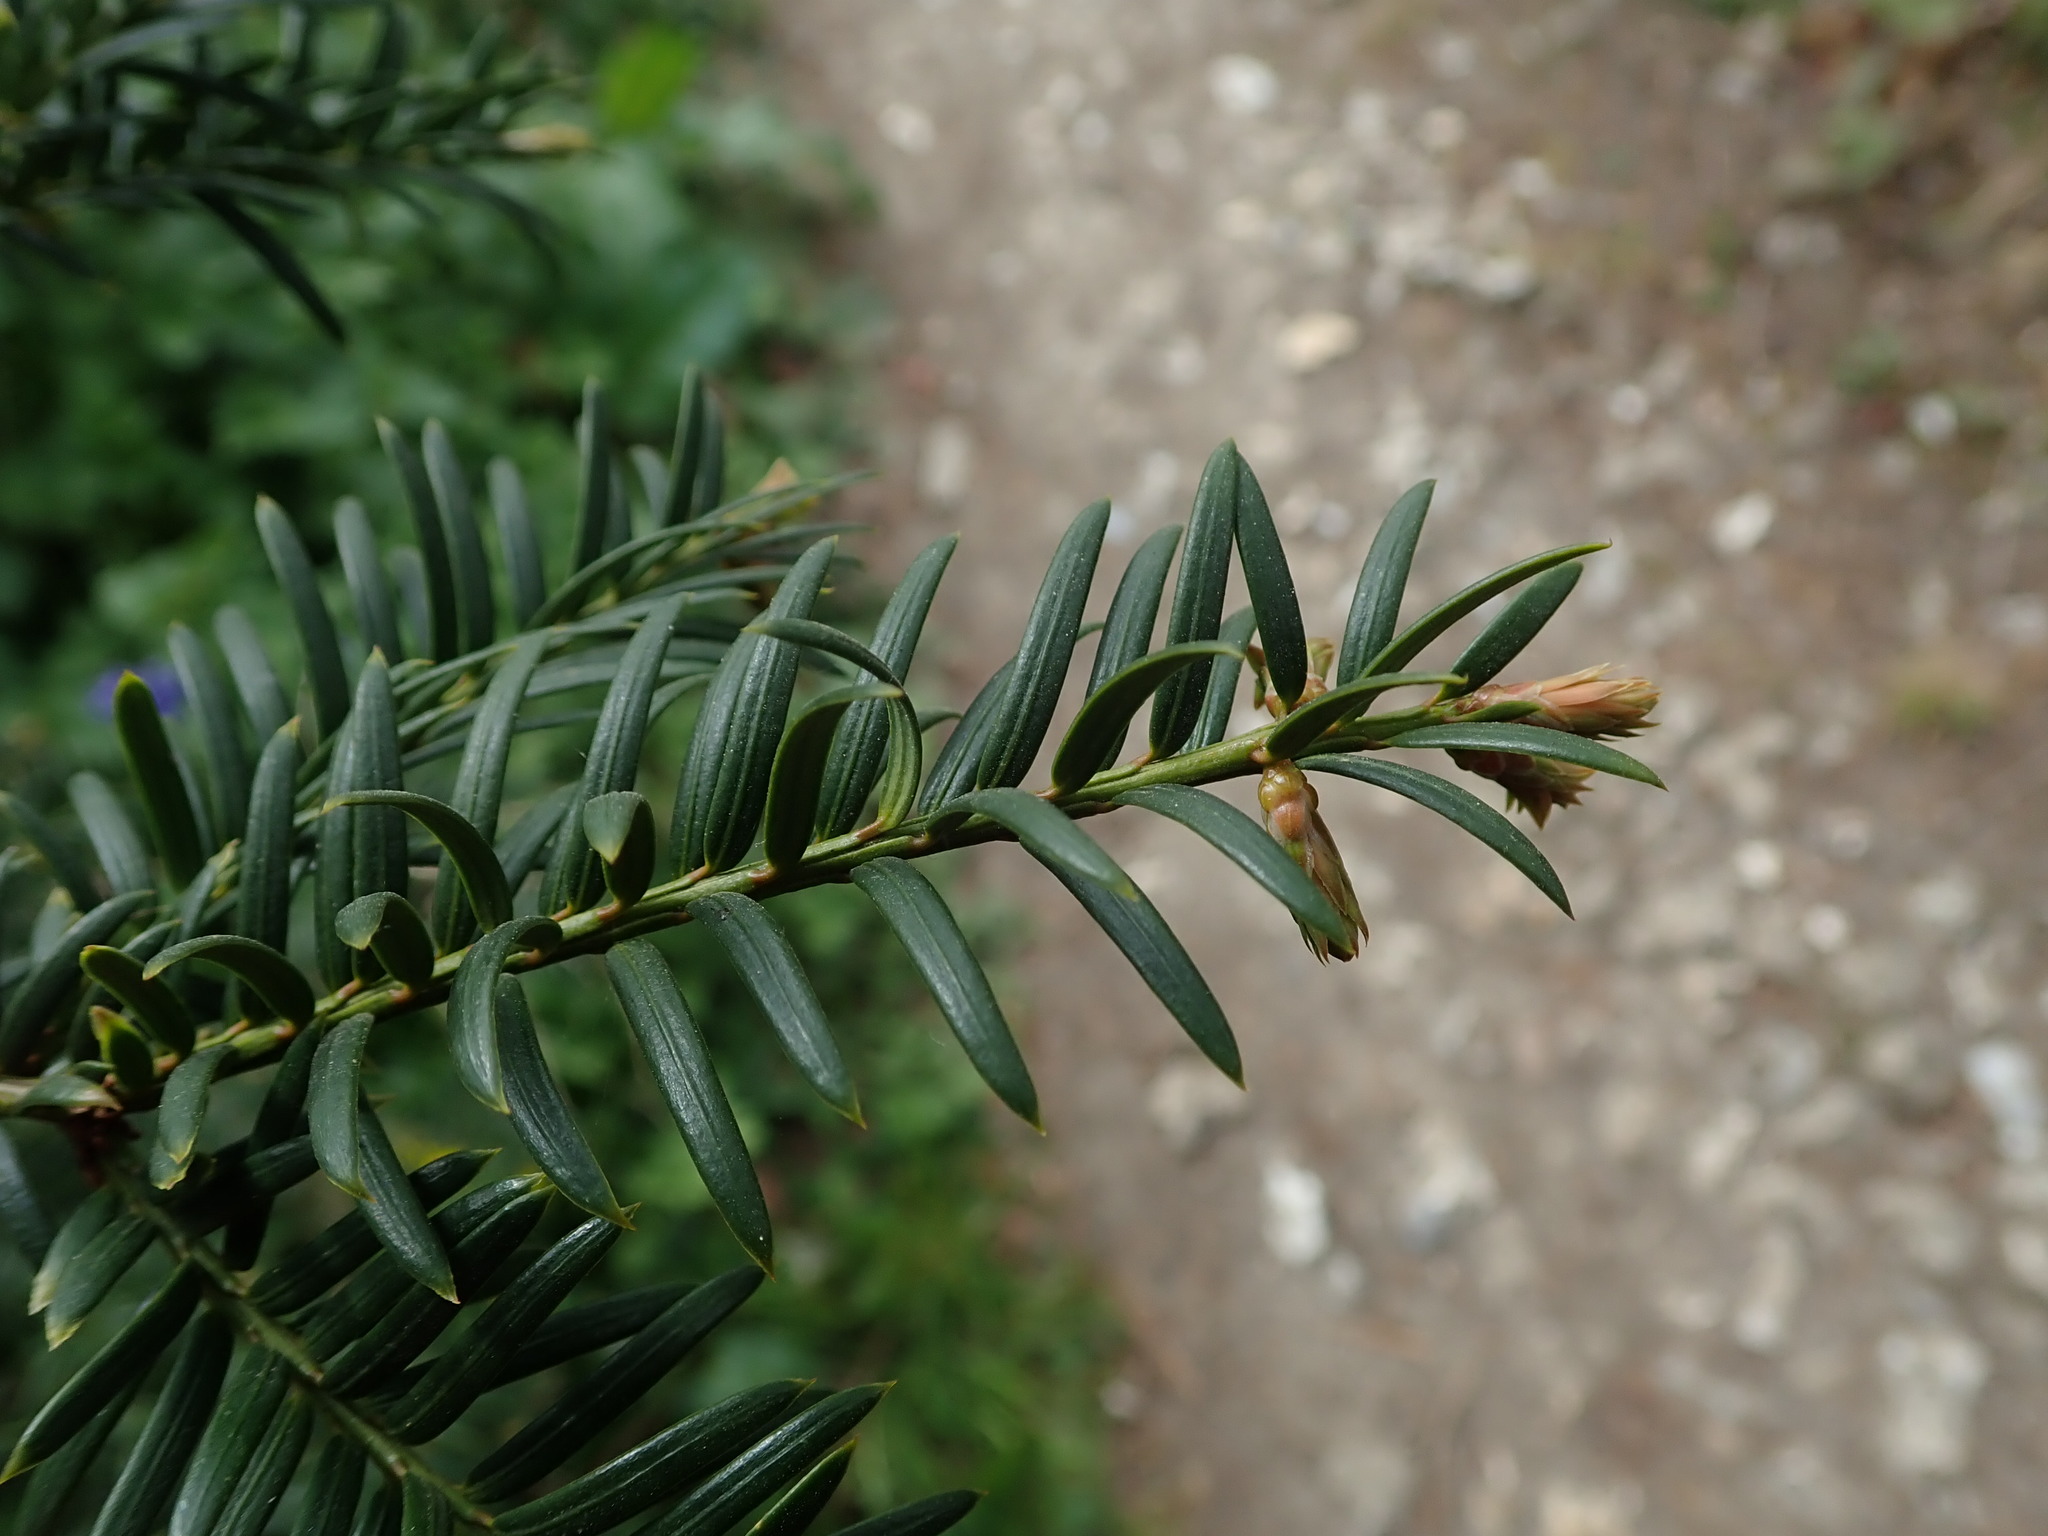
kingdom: Plantae
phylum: Tracheophyta
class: Pinopsida
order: Pinales
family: Taxaceae
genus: Taxus
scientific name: Taxus baccata
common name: Yew
